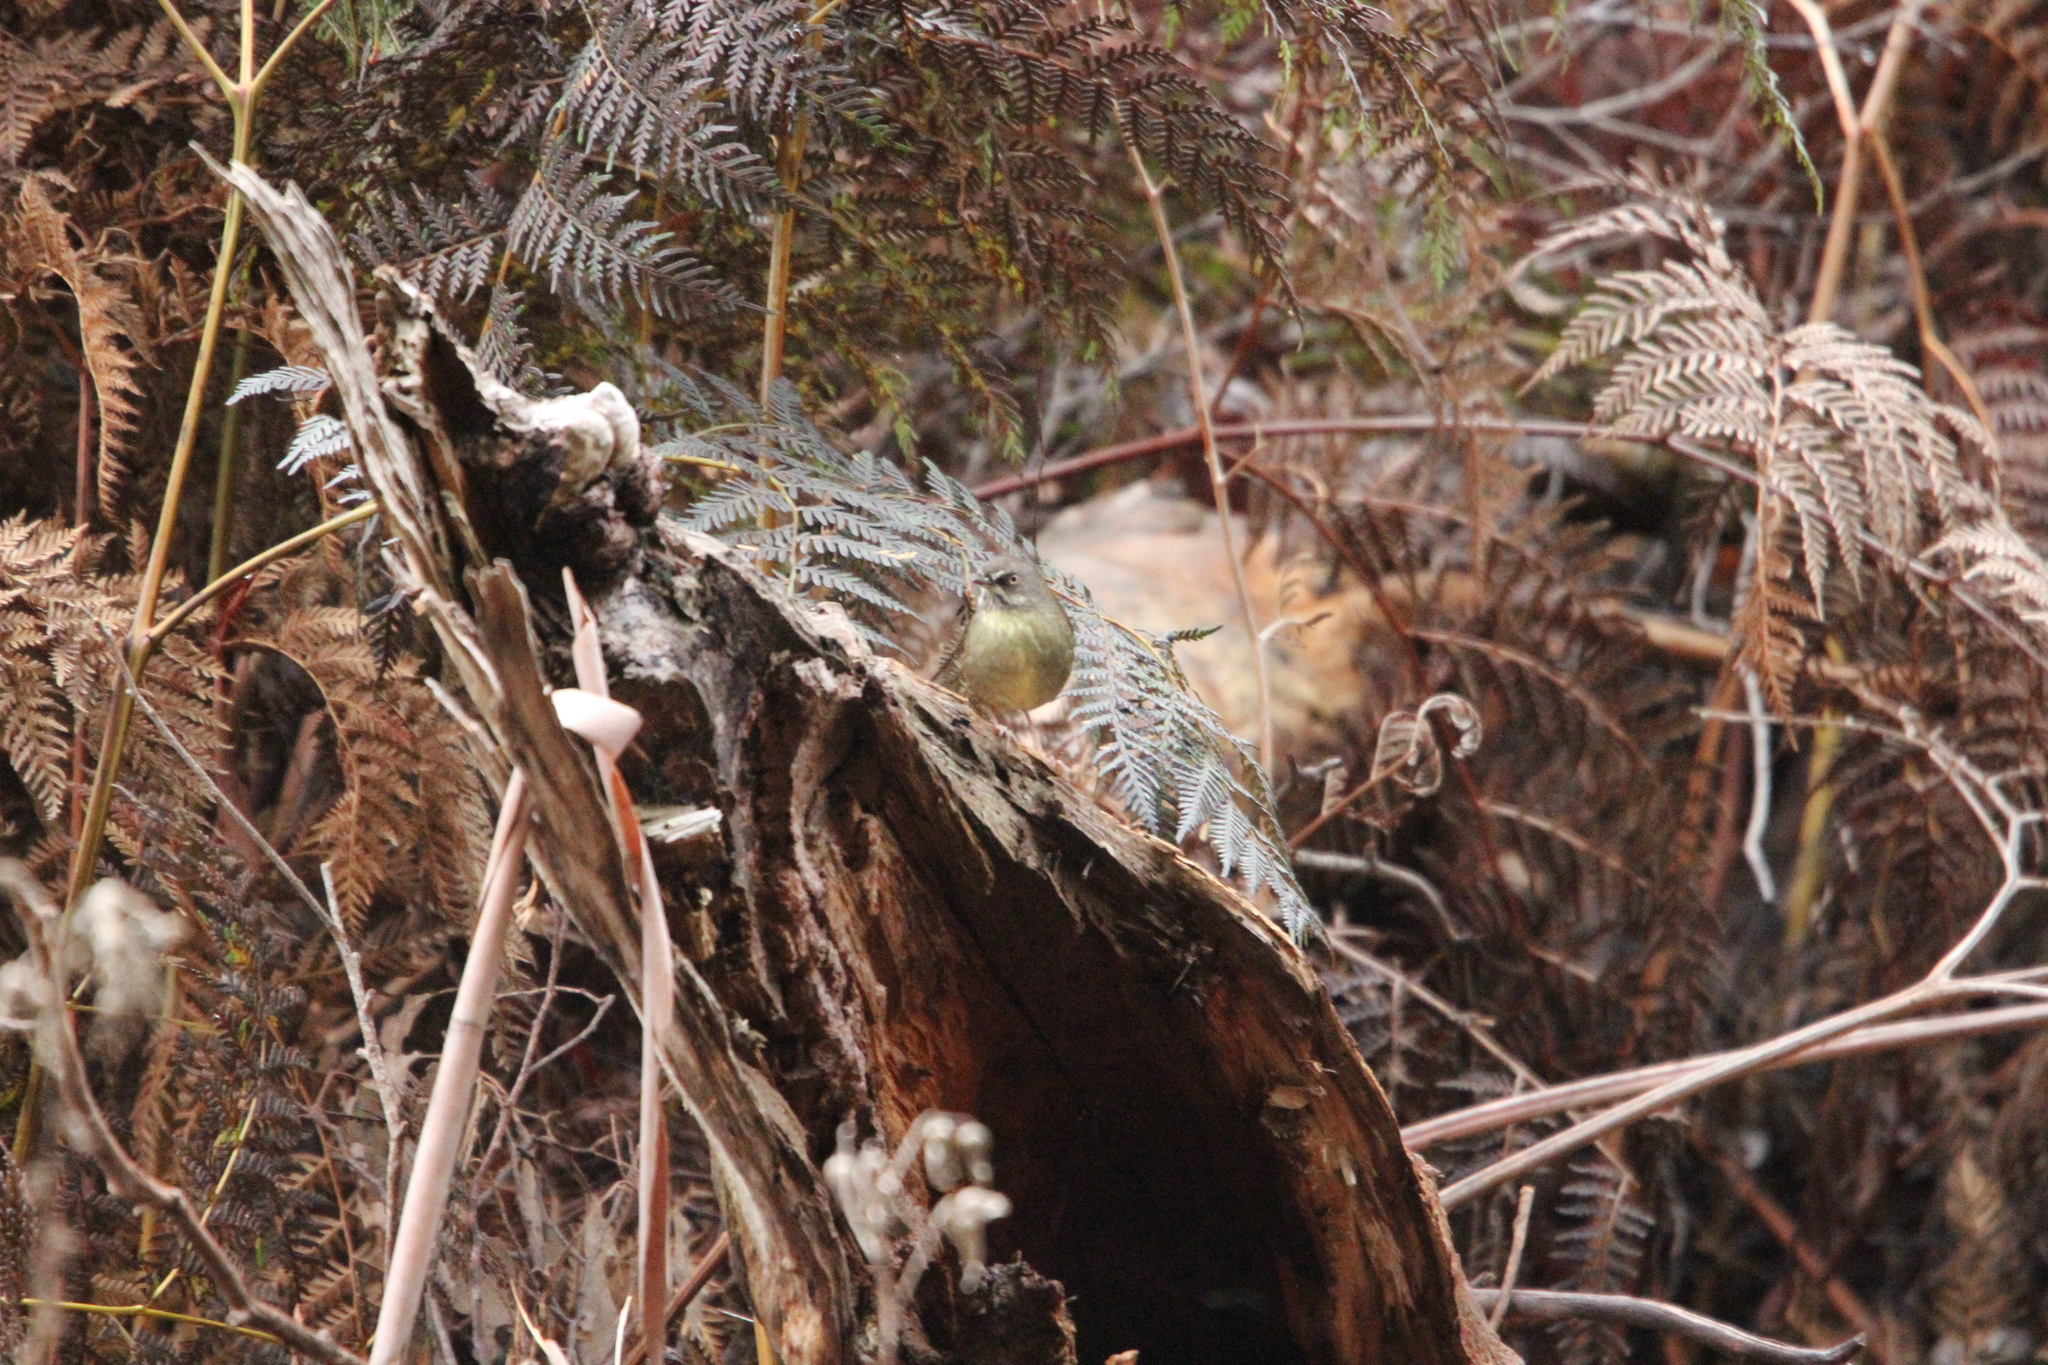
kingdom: Animalia
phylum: Chordata
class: Aves
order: Passeriformes
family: Acanthizidae
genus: Sericornis
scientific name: Sericornis humilis
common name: Tasmanian scrubwren
